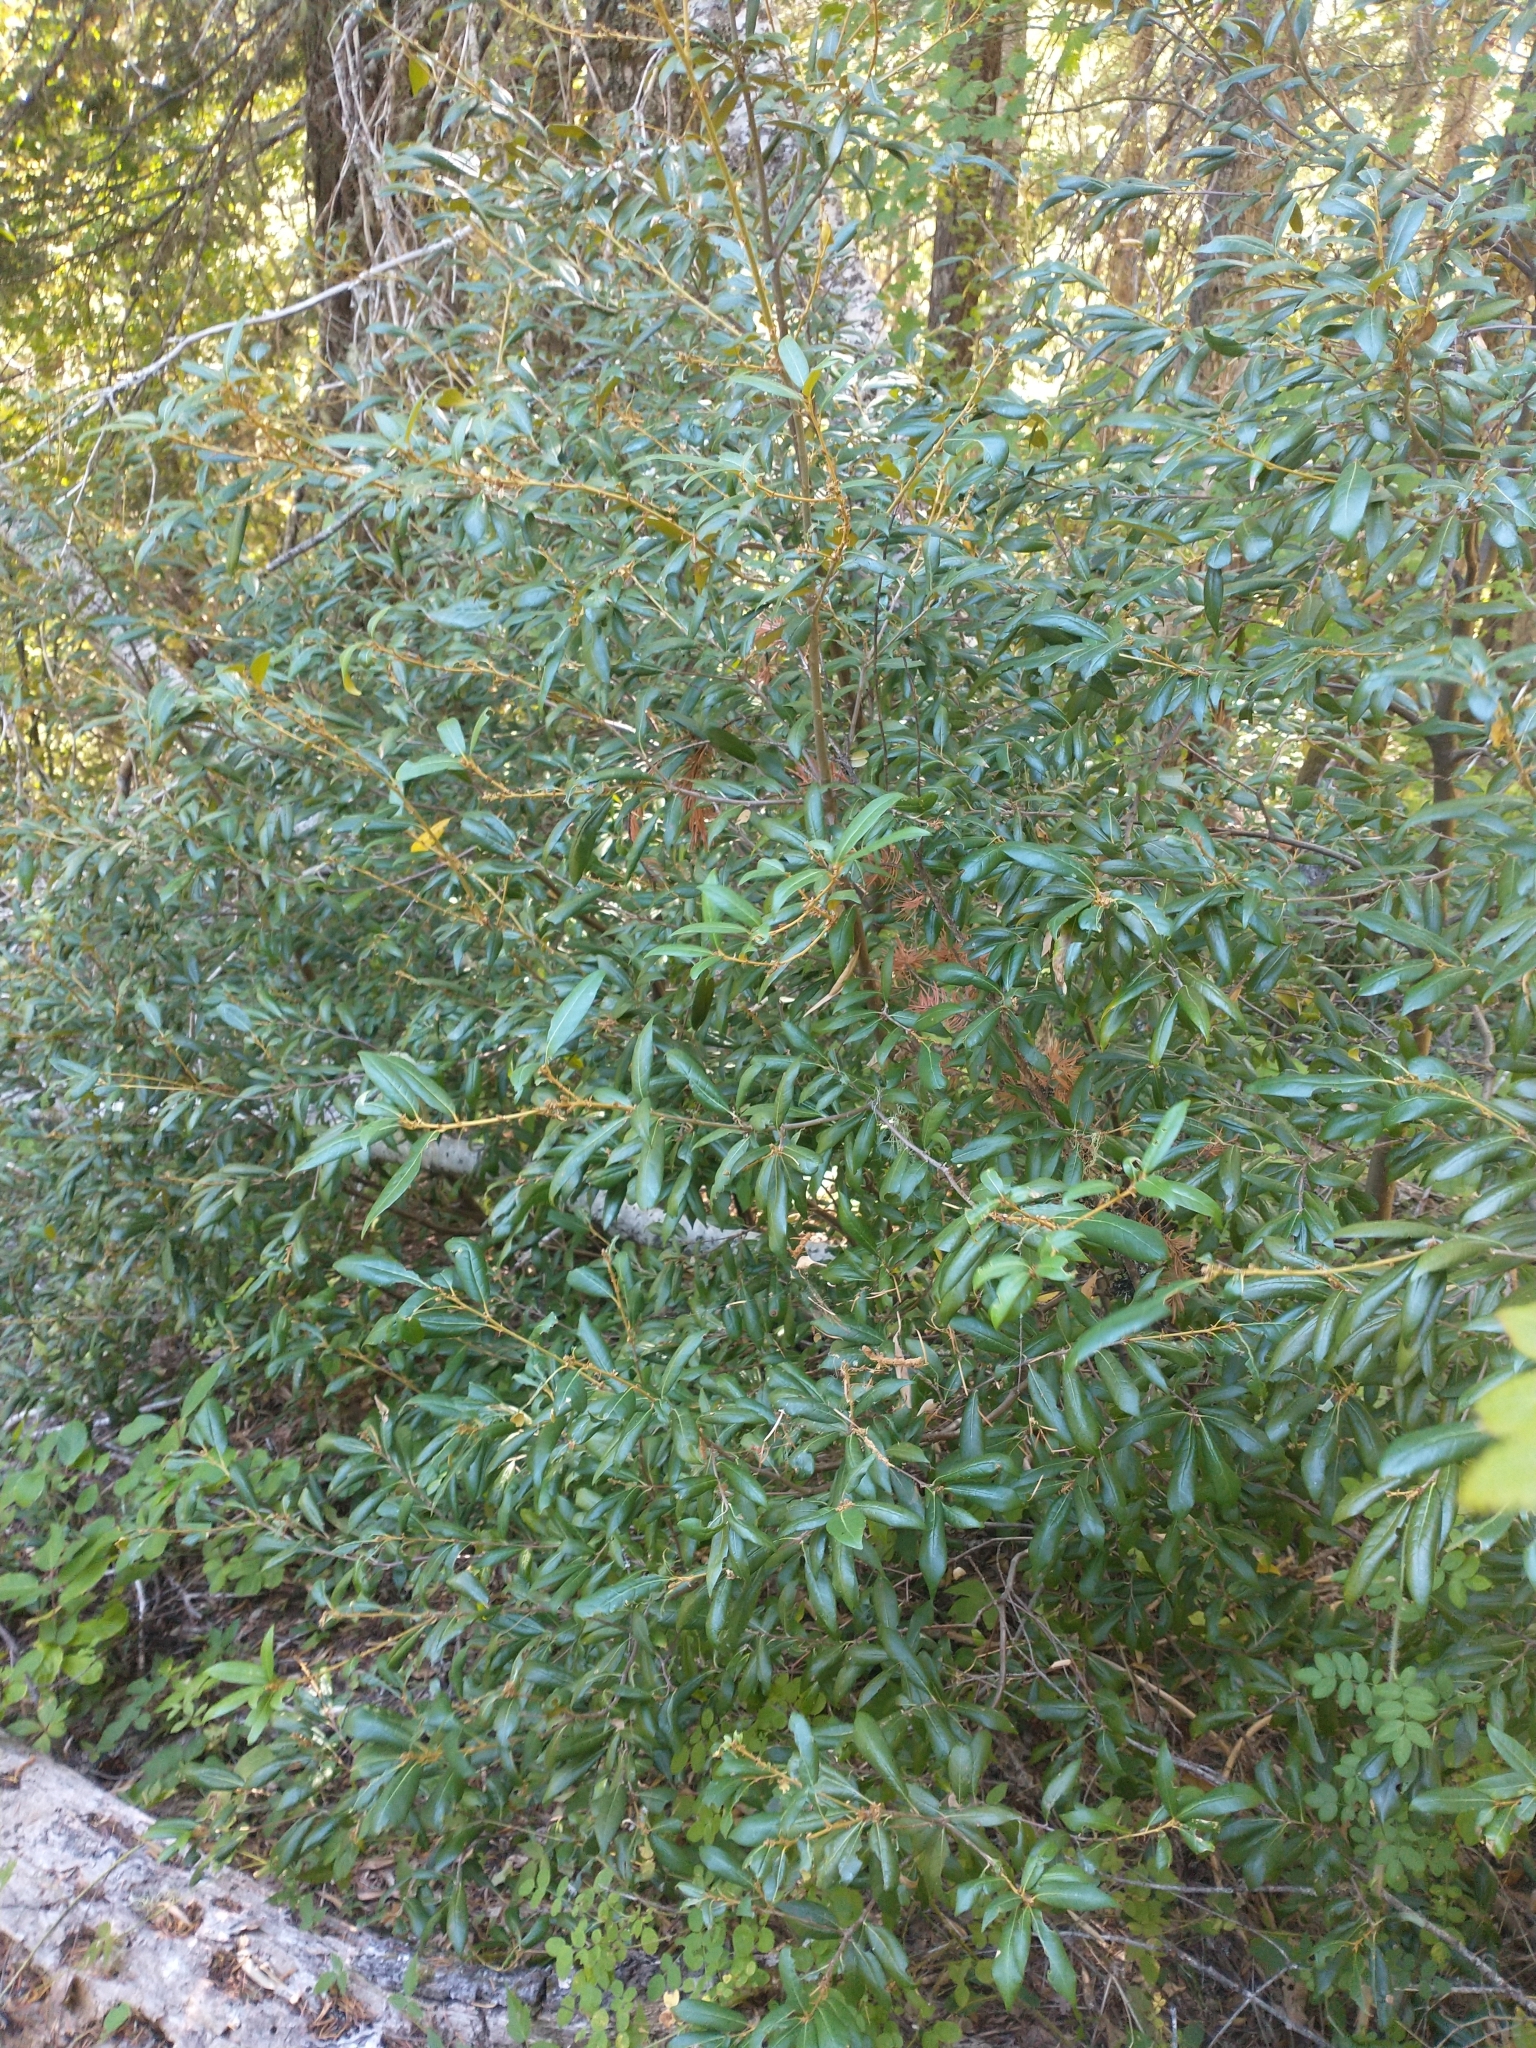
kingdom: Plantae
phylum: Tracheophyta
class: Magnoliopsida
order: Fagales
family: Fagaceae
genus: Chrysolepis
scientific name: Chrysolepis chrysophylla
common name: Giant chinquapin
